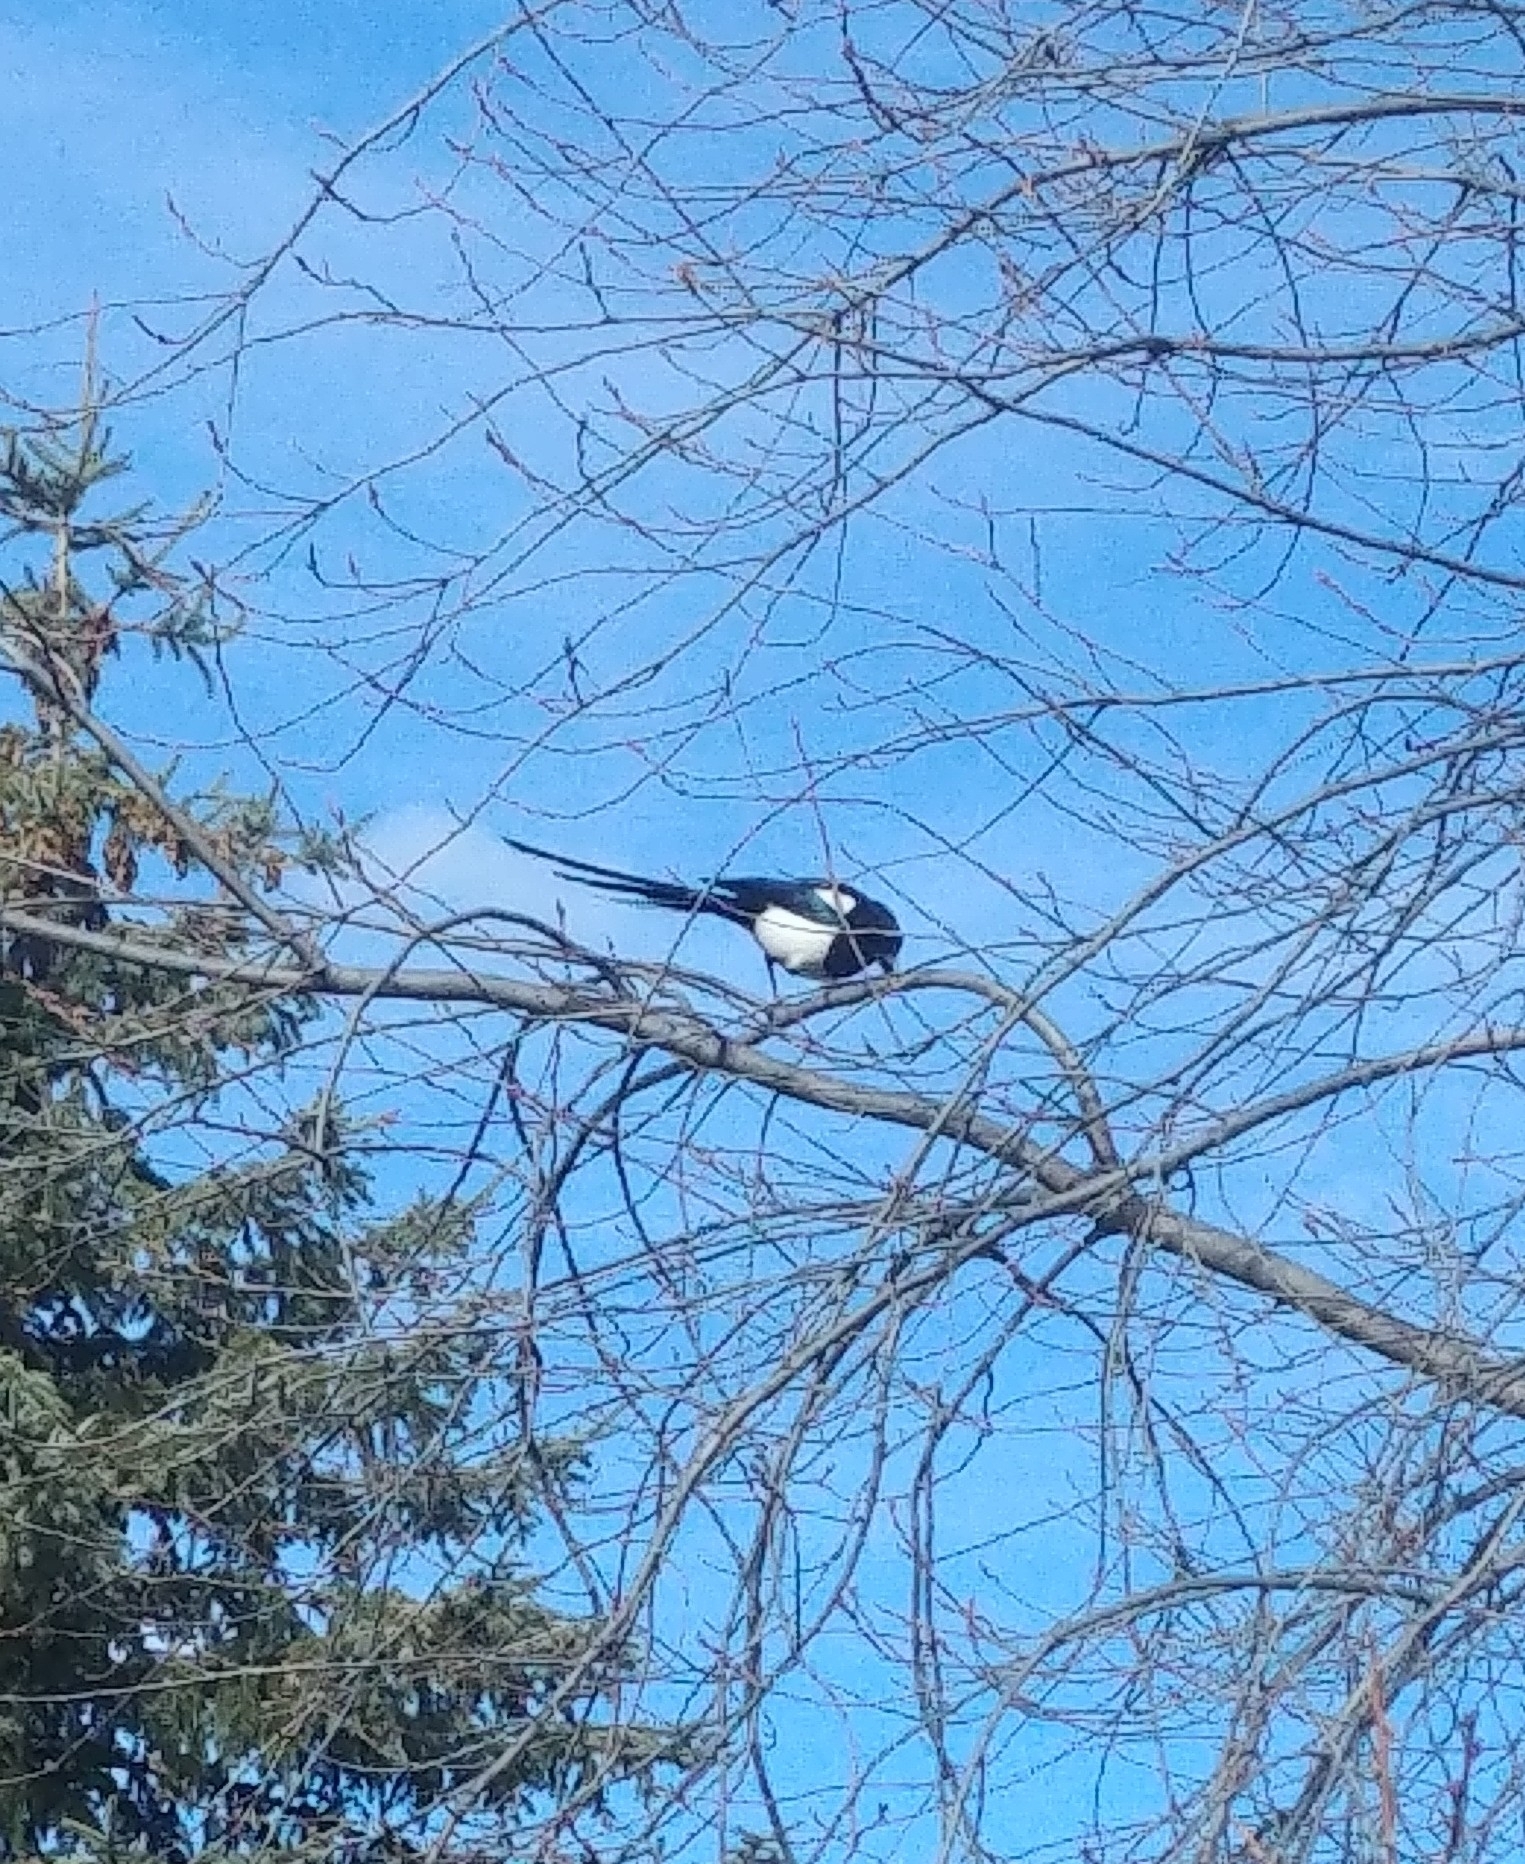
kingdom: Animalia
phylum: Chordata
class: Aves
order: Passeriformes
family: Corvidae
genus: Pica
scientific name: Pica hudsonia
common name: Black-billed magpie
